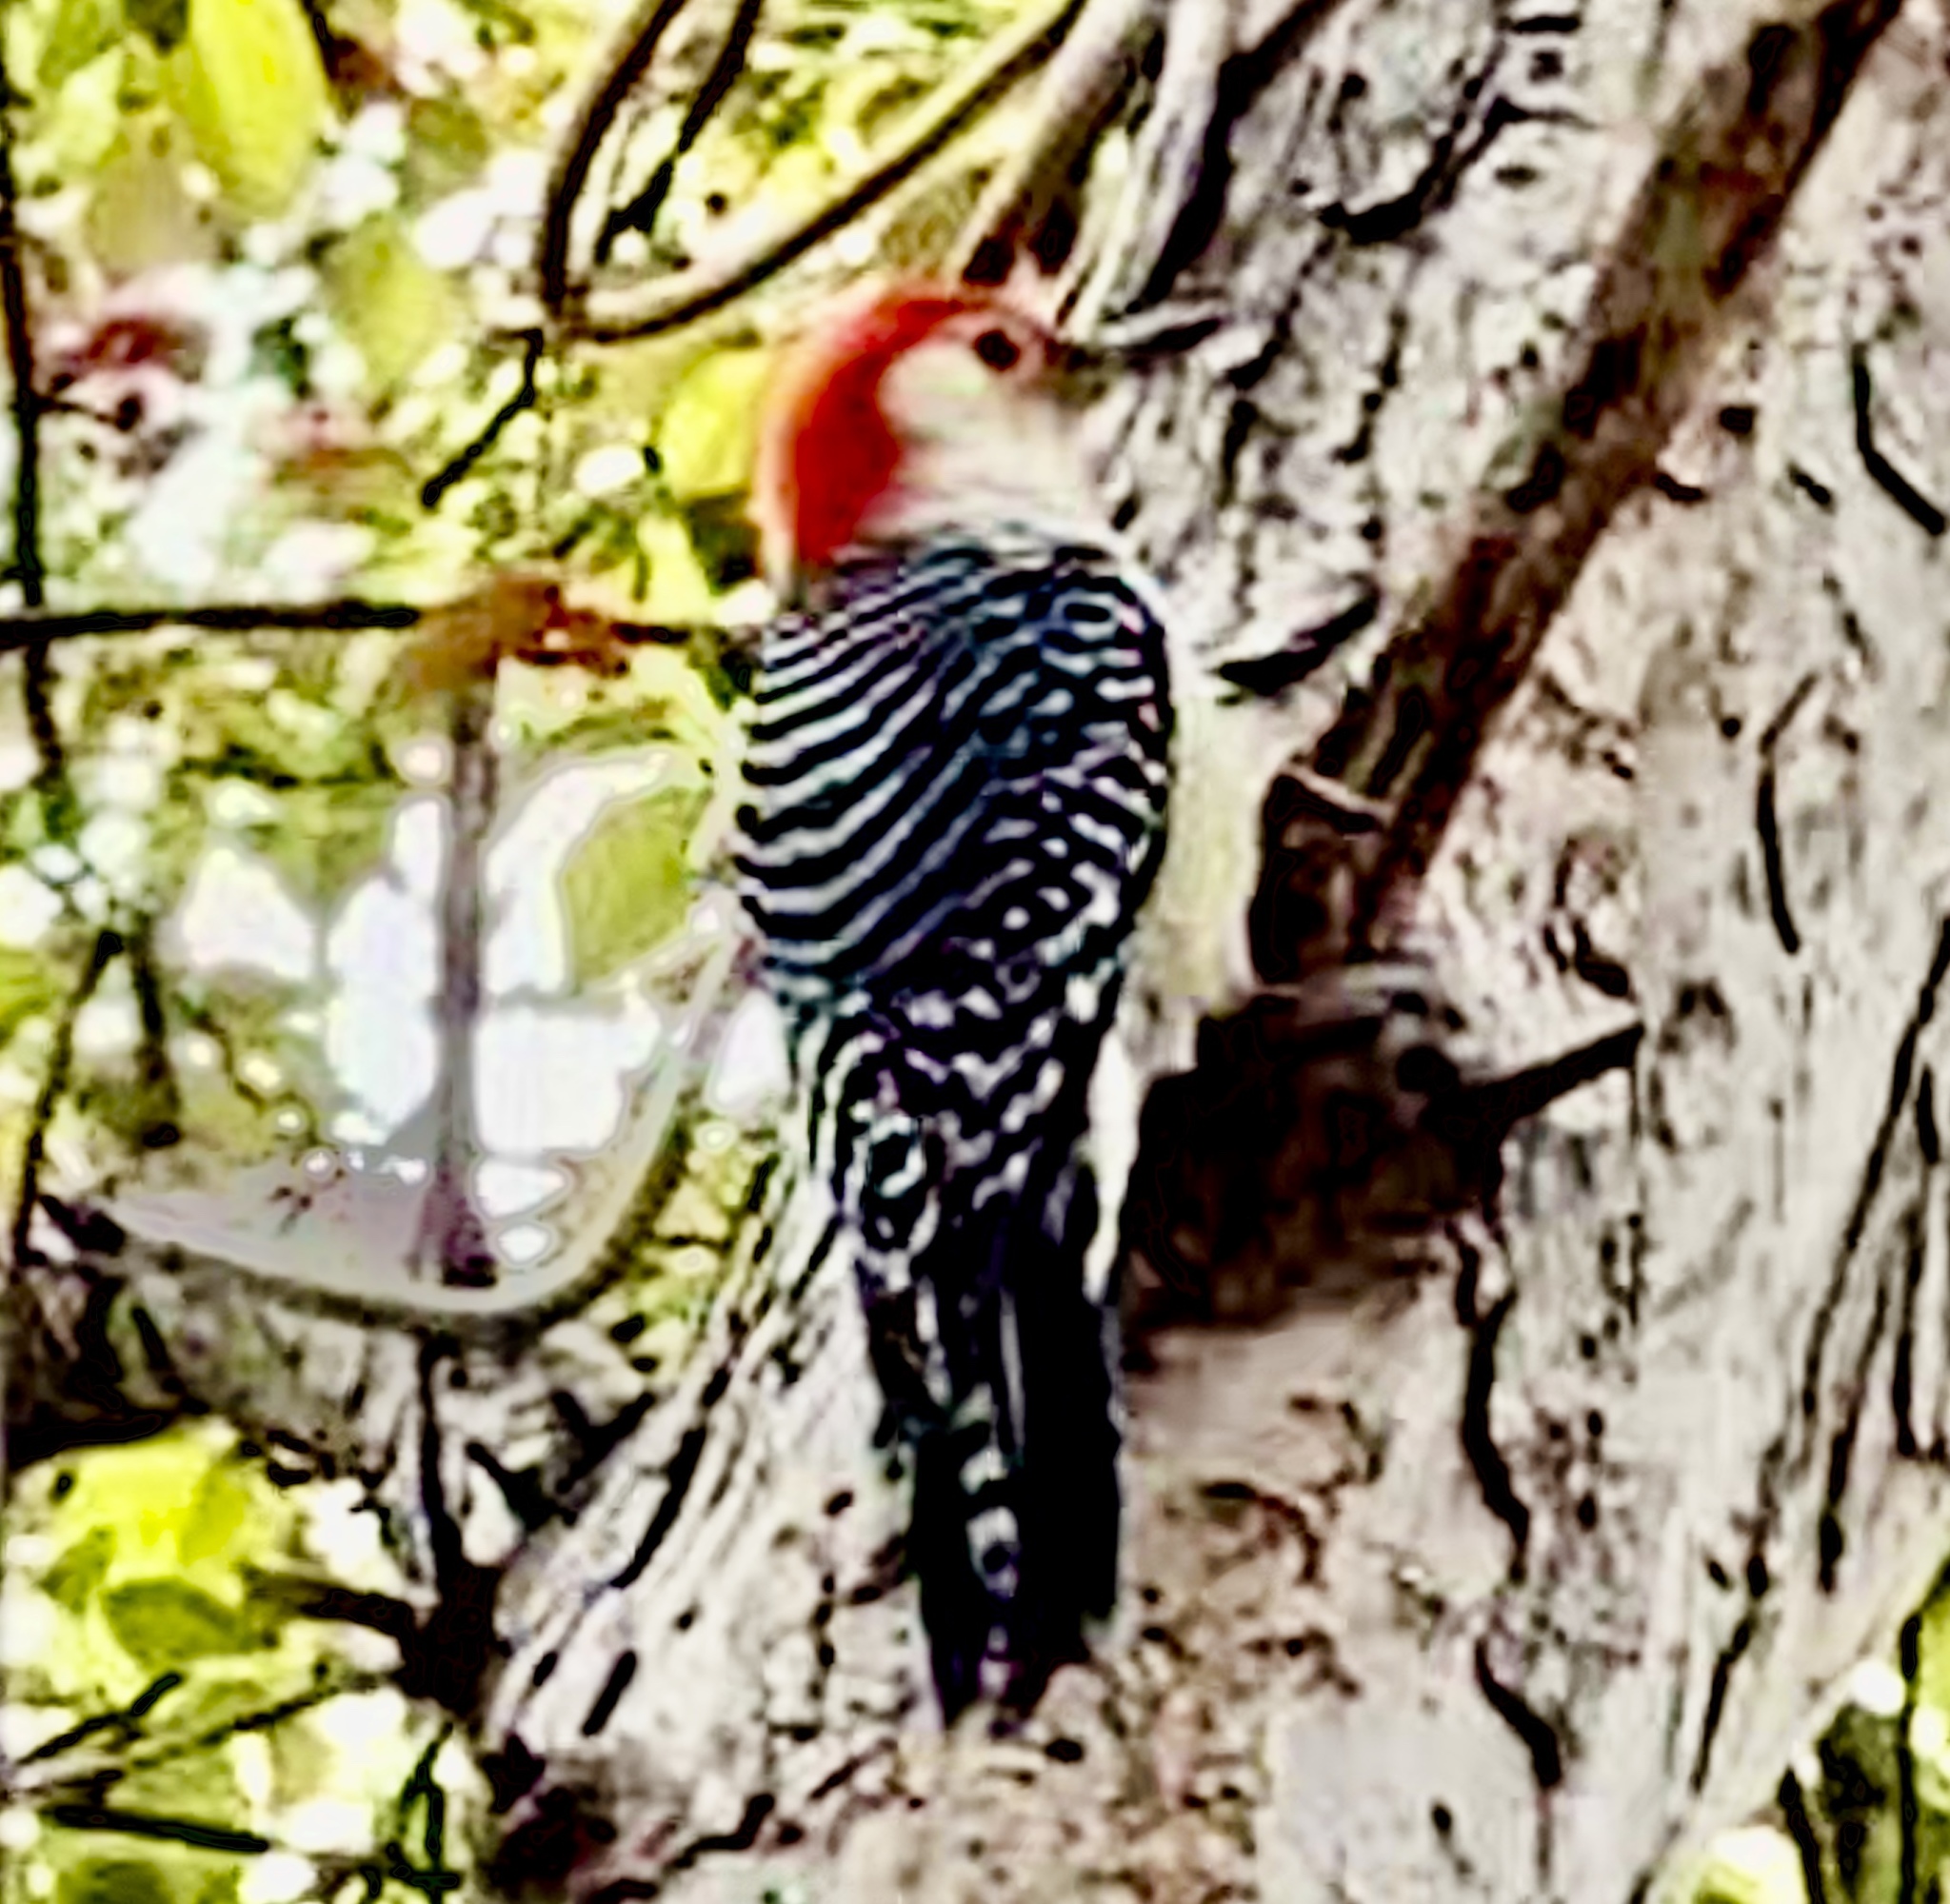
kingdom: Animalia
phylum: Chordata
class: Aves
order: Piciformes
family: Picidae
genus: Melanerpes
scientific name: Melanerpes carolinus
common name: Red-bellied woodpecker
